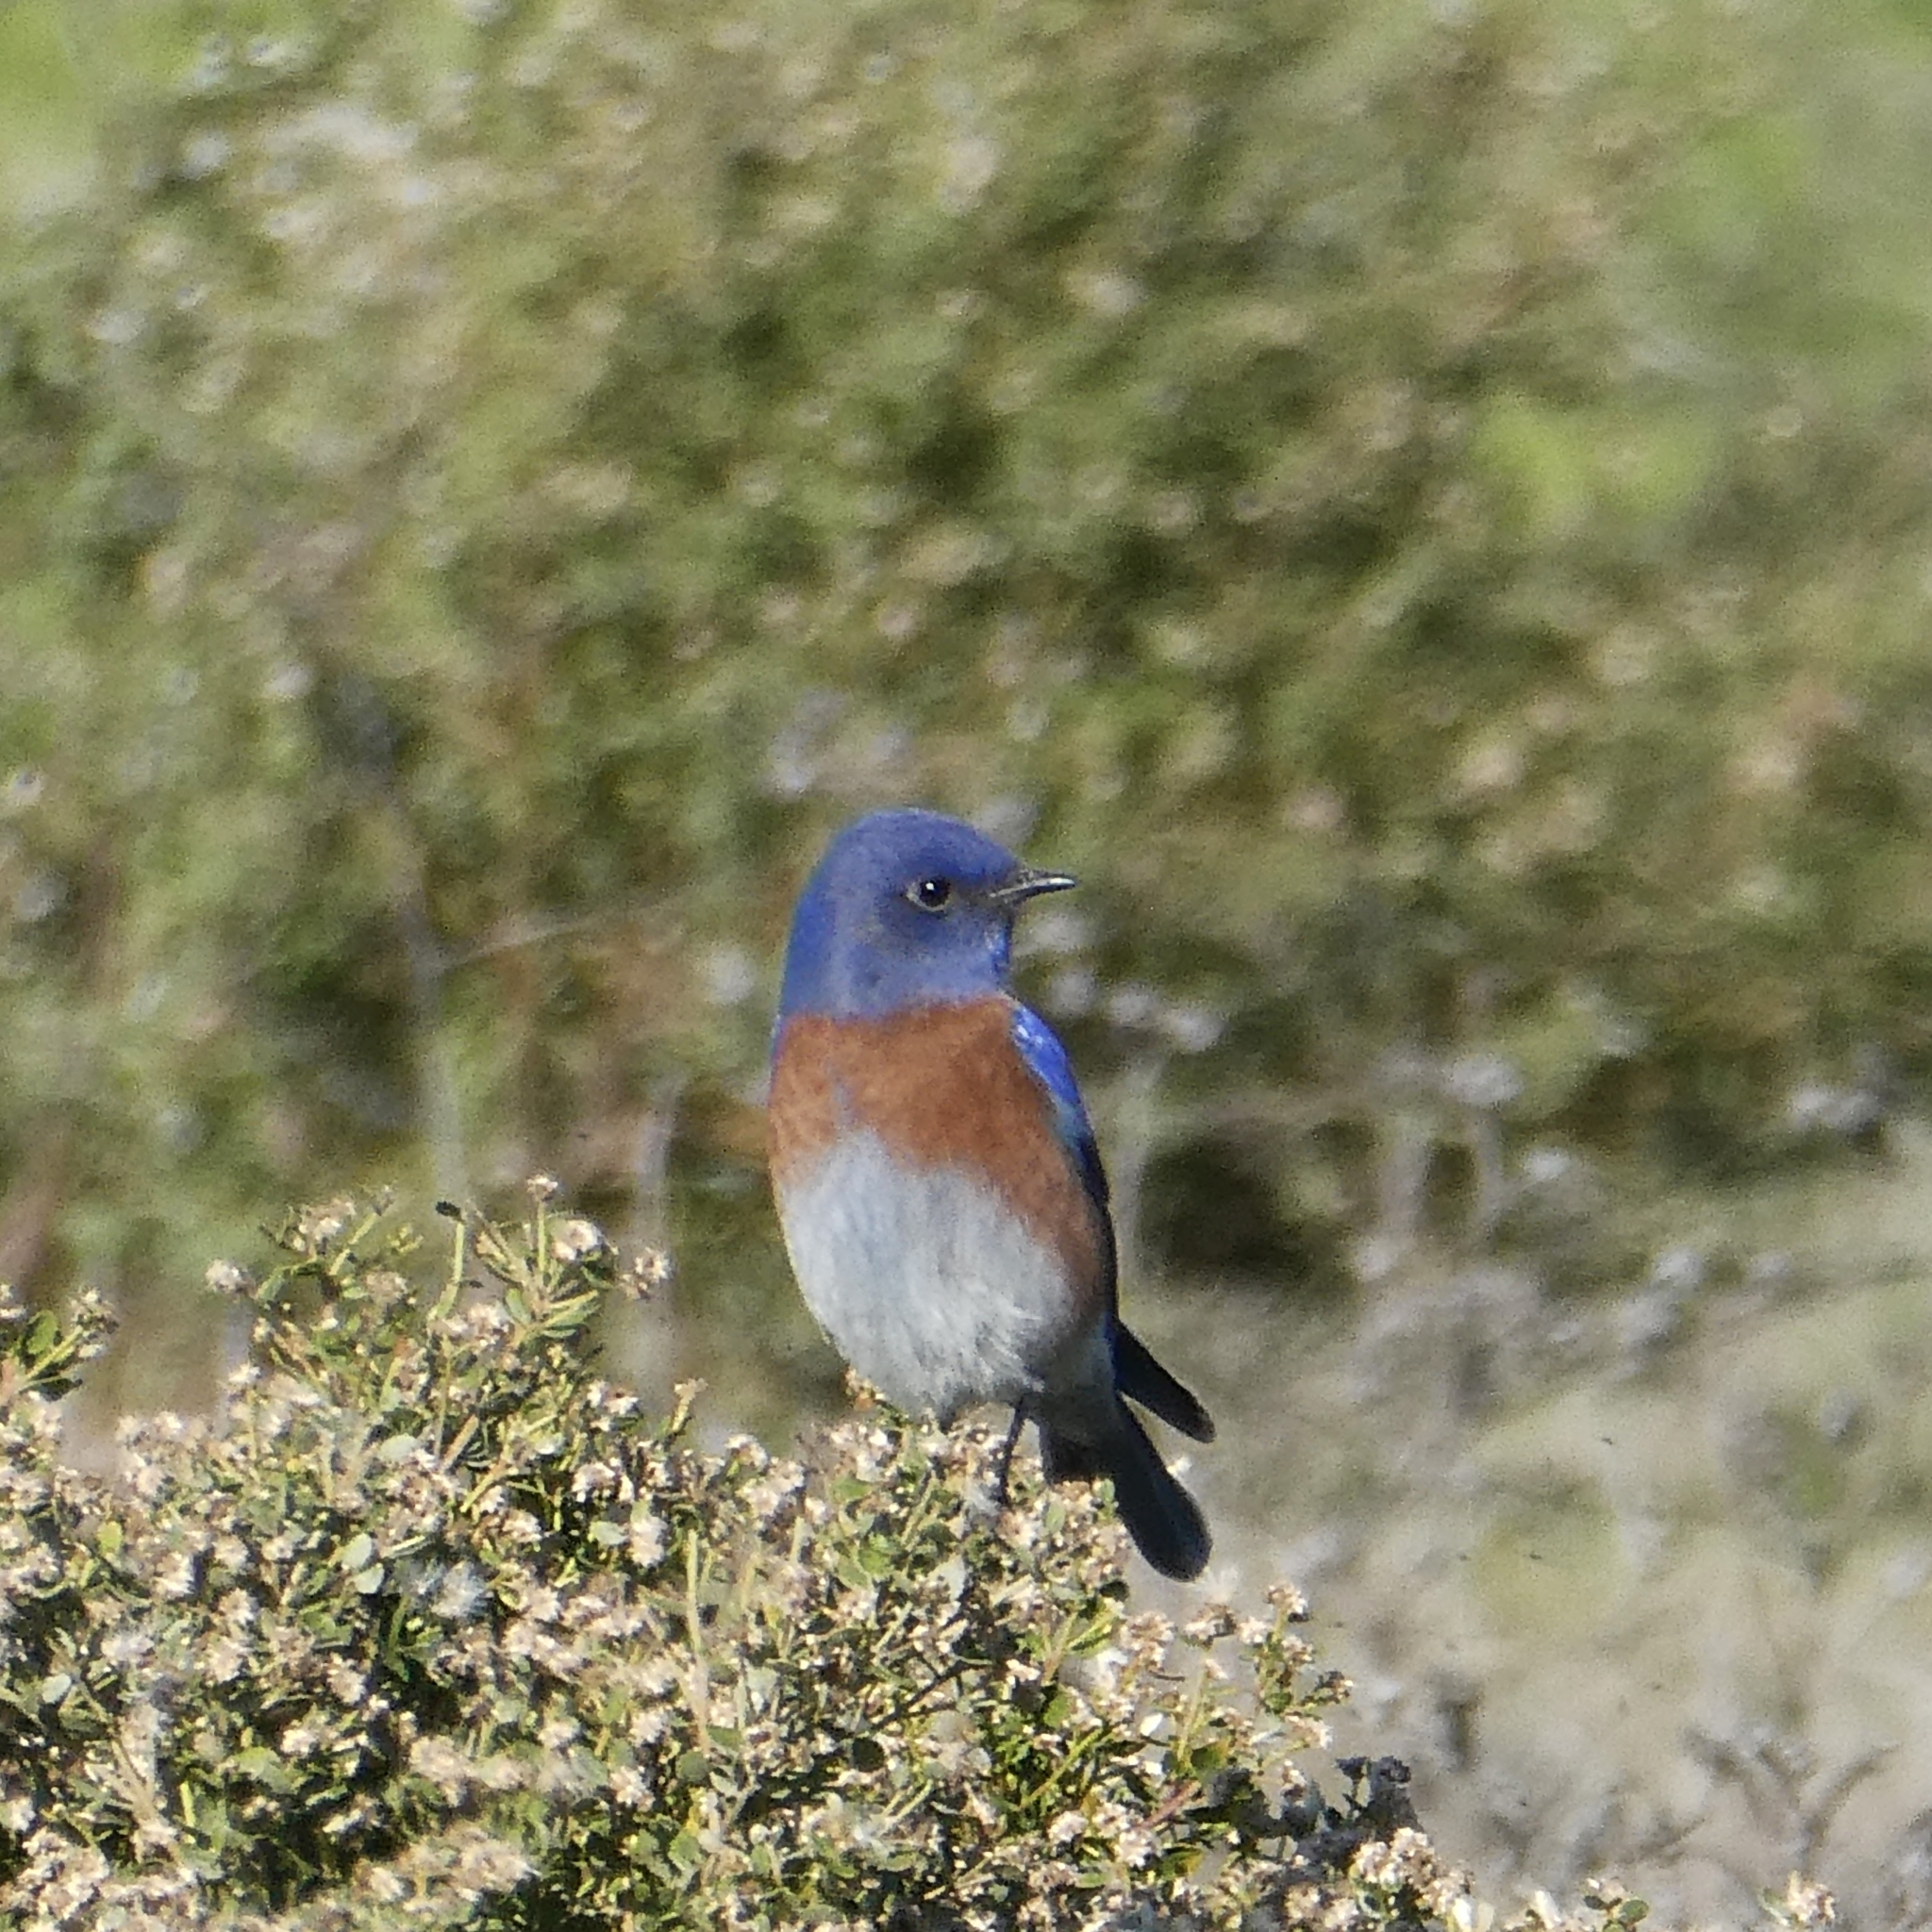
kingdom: Animalia
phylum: Chordata
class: Aves
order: Passeriformes
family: Turdidae
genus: Sialia
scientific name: Sialia mexicana
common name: Western bluebird
